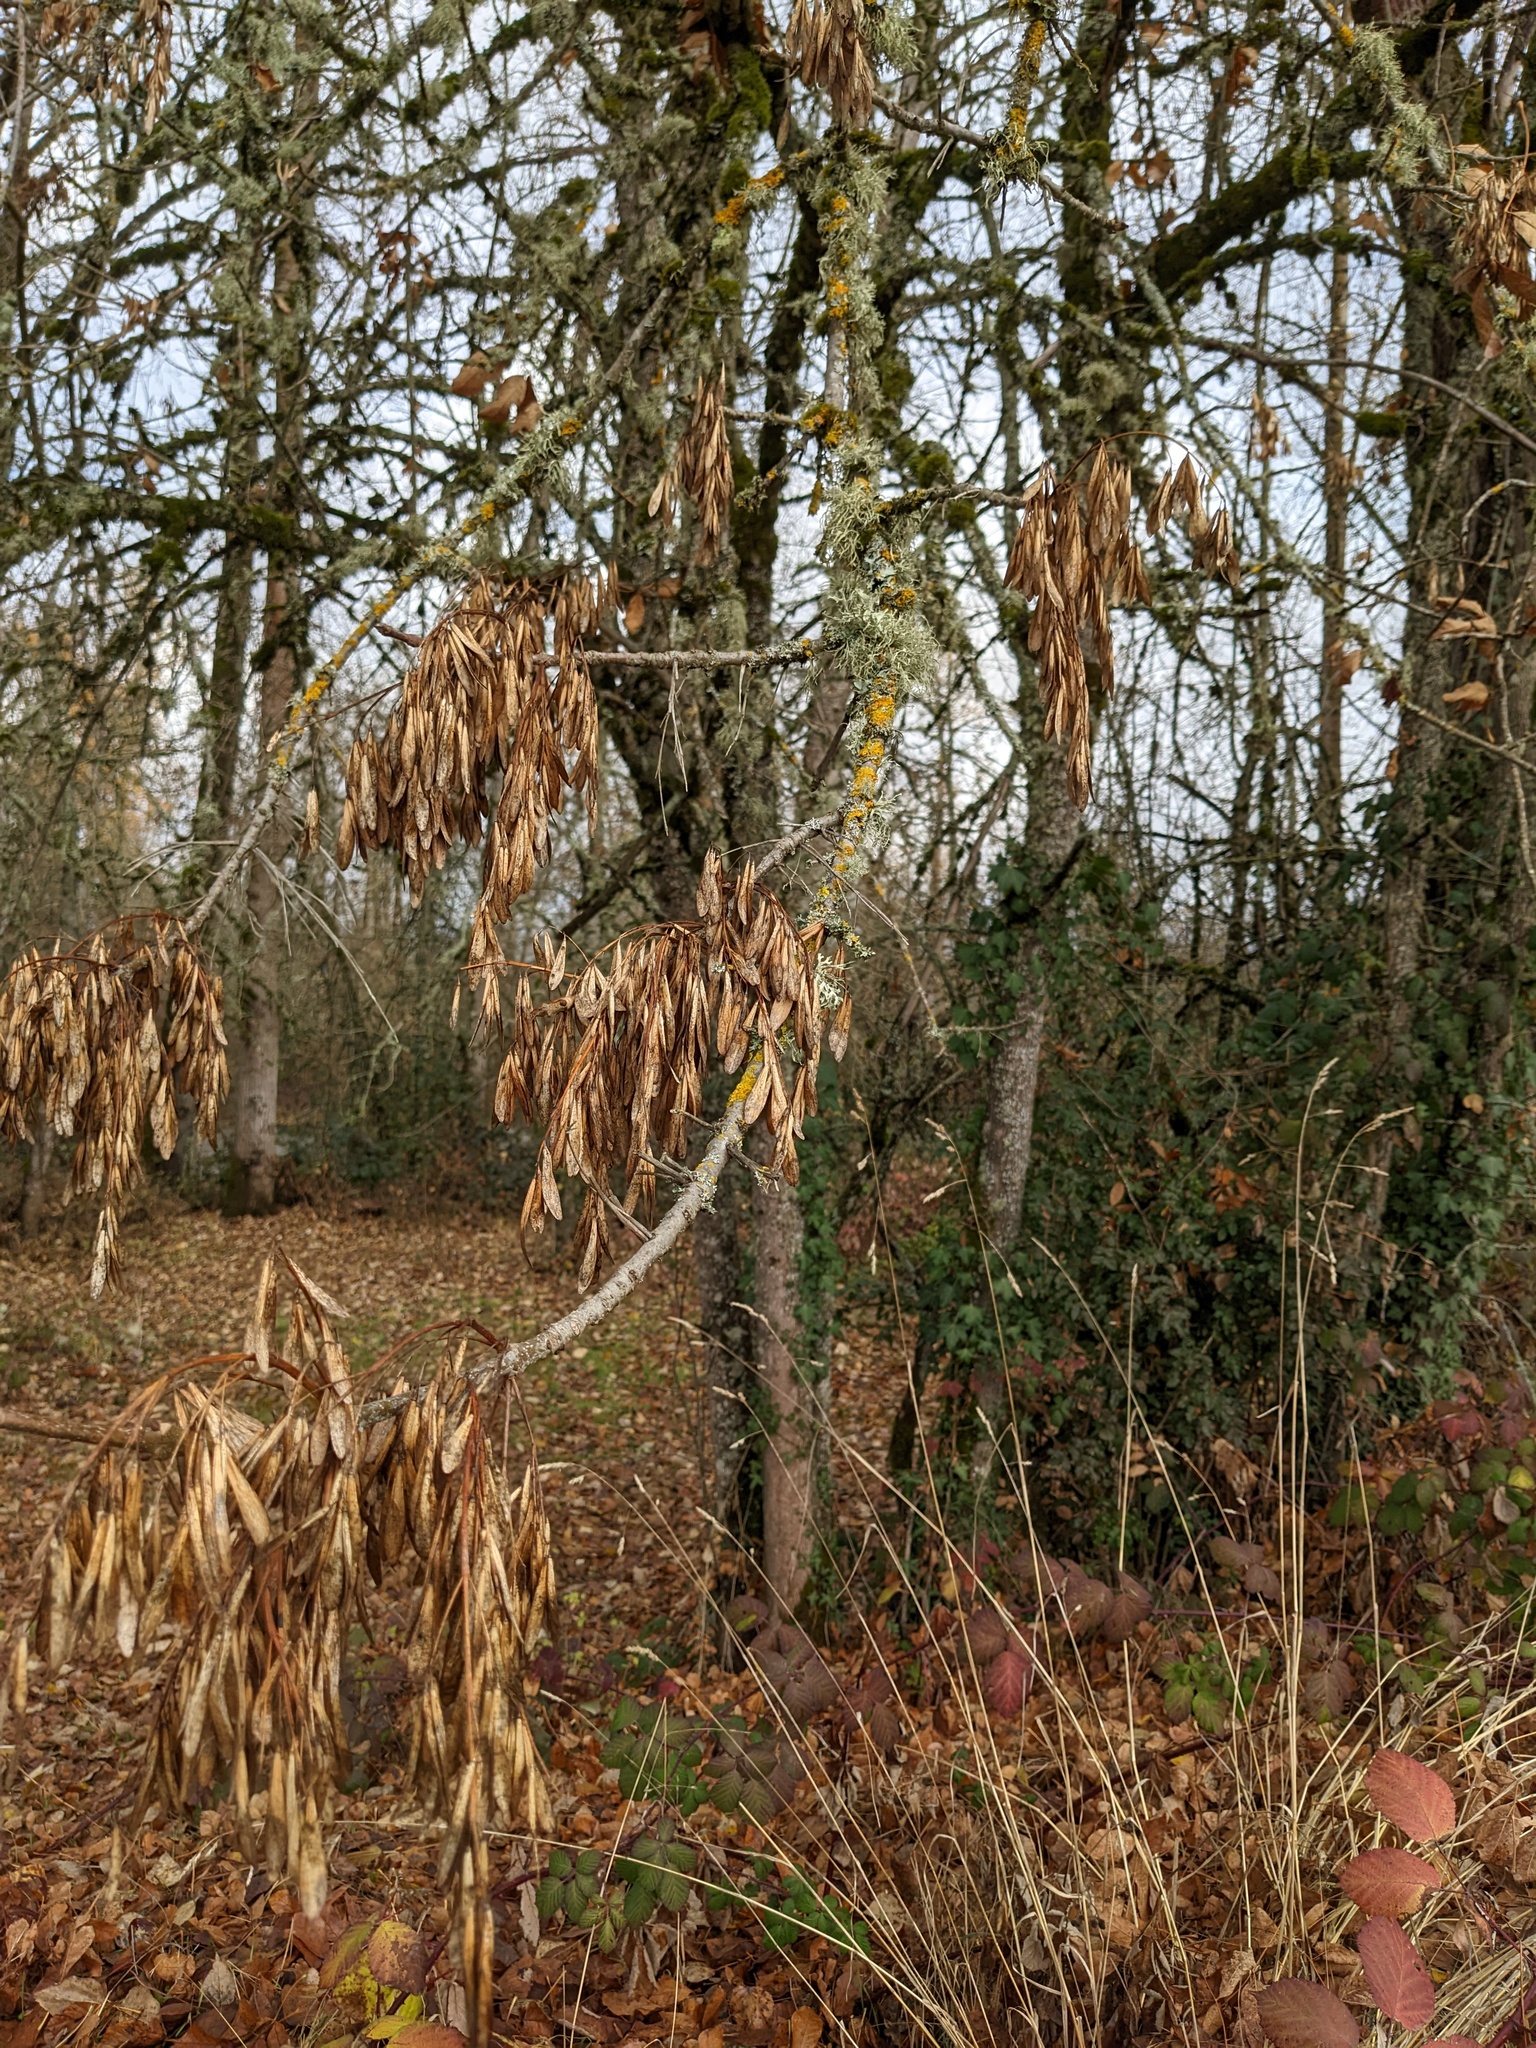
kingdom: Plantae
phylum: Tracheophyta
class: Magnoliopsida
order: Lamiales
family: Oleaceae
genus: Fraxinus
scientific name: Fraxinus latifolia
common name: Oregon ash
